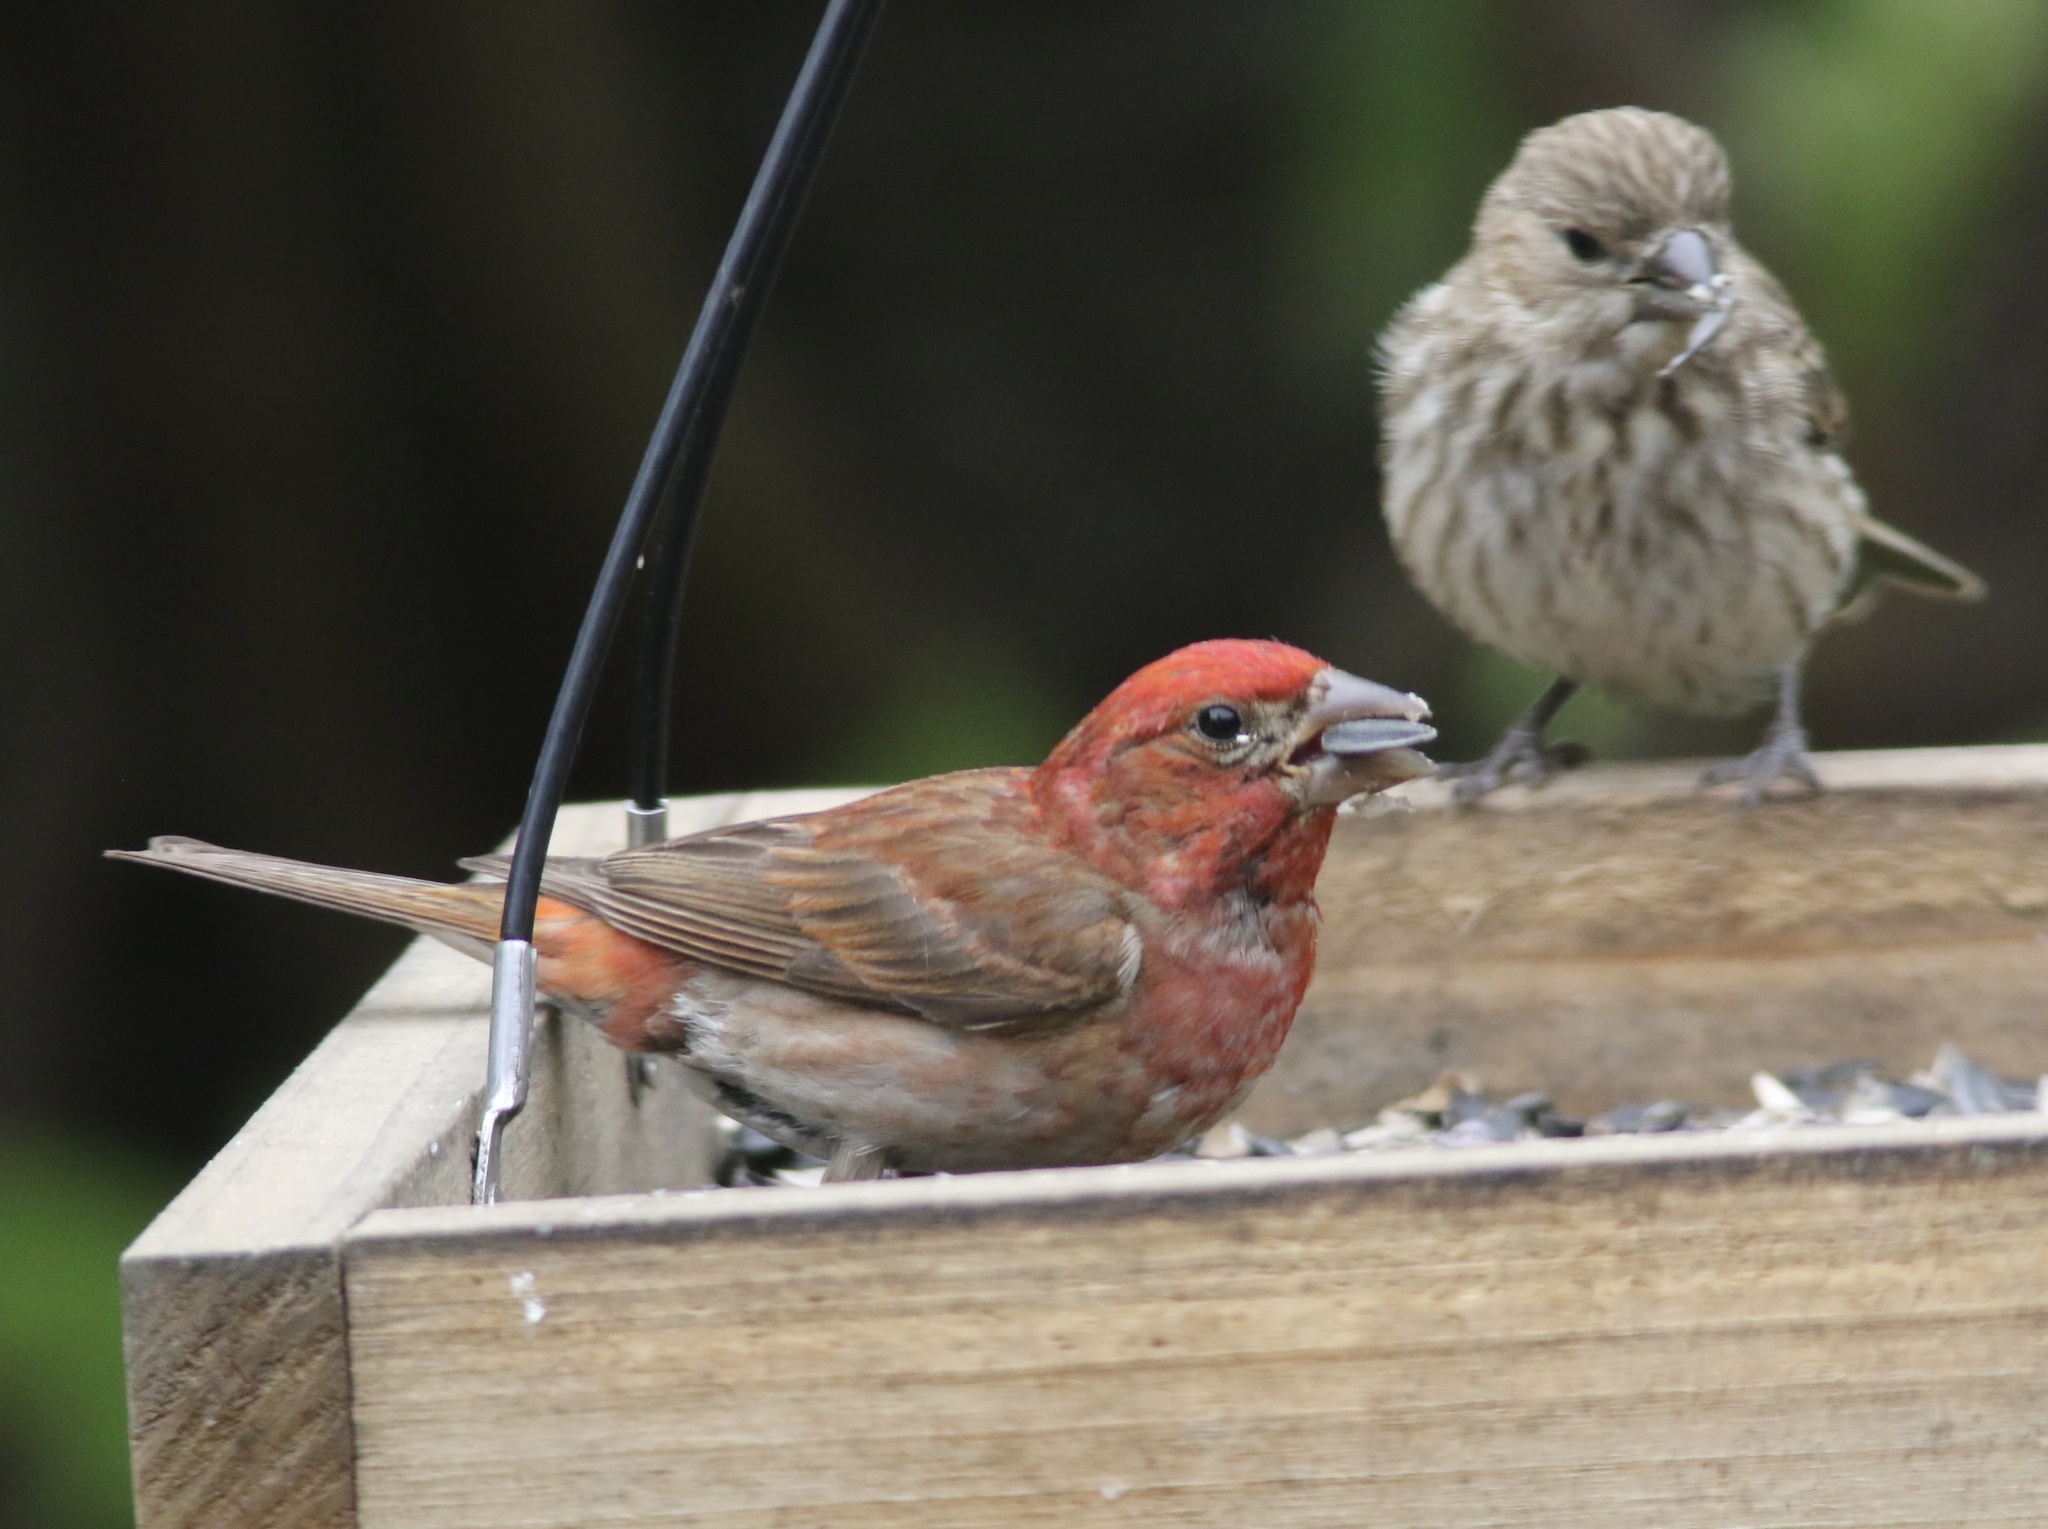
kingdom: Animalia
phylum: Chordata
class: Aves
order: Passeriformes
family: Fringillidae
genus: Haemorhous
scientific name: Haemorhous purpureus
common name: Purple finch
